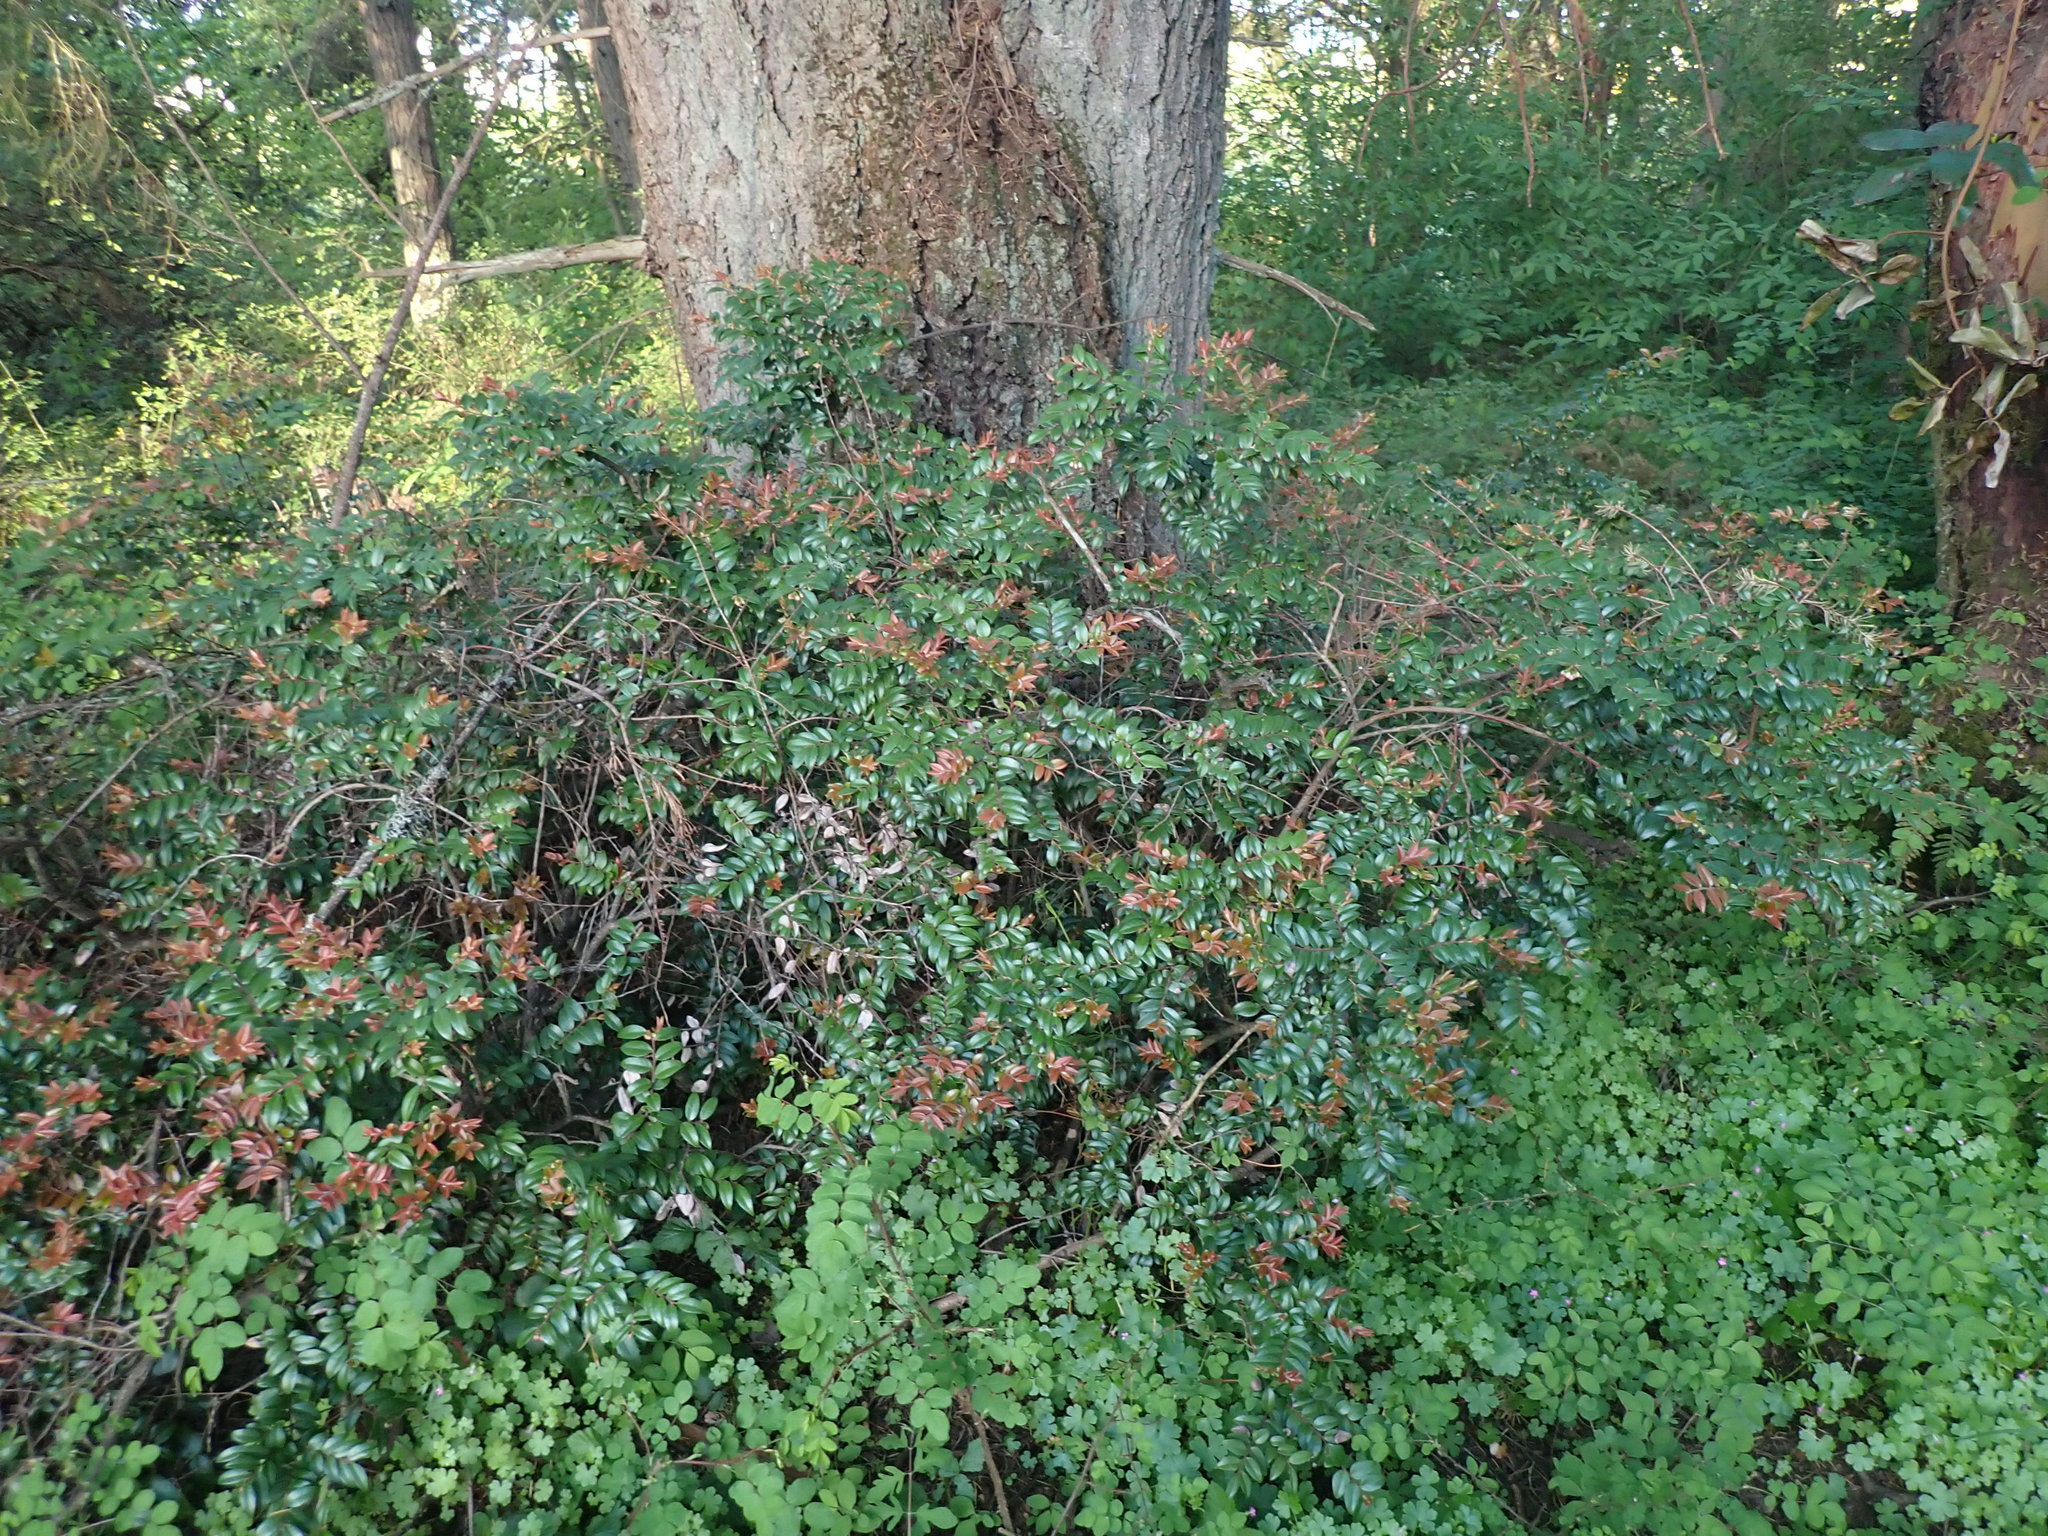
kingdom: Plantae
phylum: Tracheophyta
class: Magnoliopsida
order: Ericales
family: Ericaceae
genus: Vaccinium
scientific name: Vaccinium ovatum
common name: California-huckleberry
